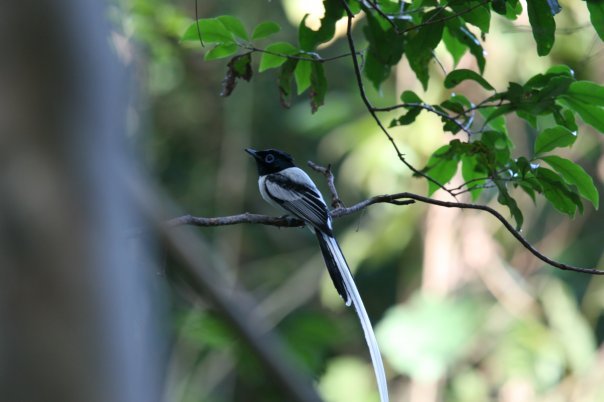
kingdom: Animalia
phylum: Chordata
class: Aves
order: Passeriformes
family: Monarchidae
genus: Terpsiphone
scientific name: Terpsiphone mutata
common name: Malagasy paradise flycatcher
